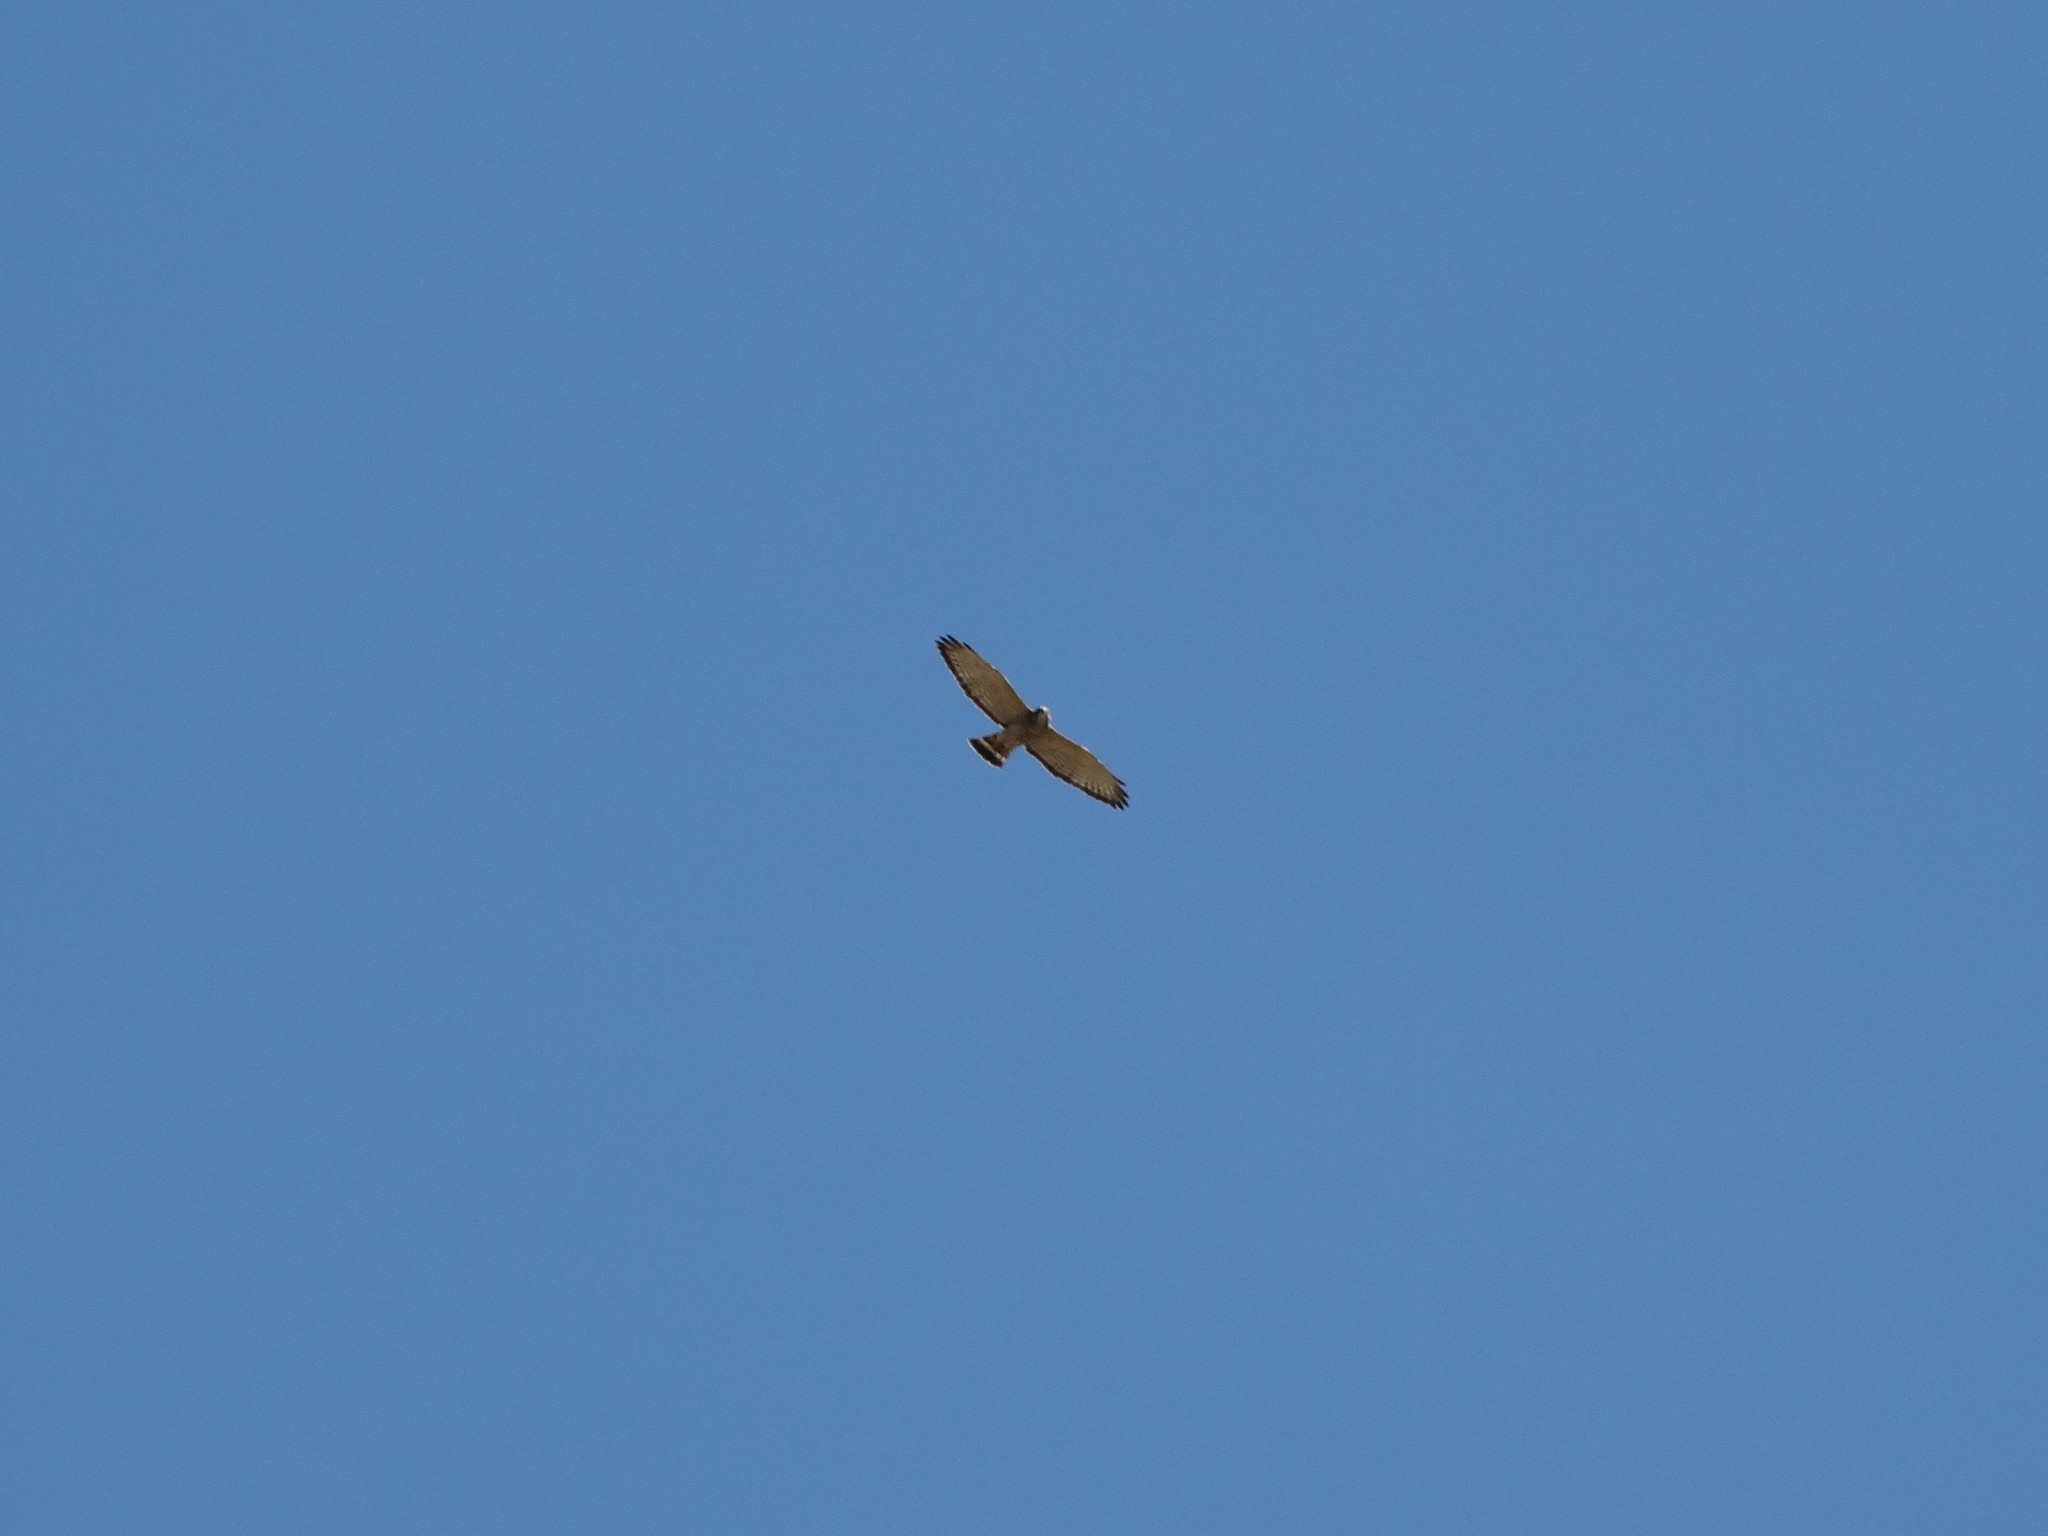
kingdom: Animalia
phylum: Chordata
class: Aves
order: Accipitriformes
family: Accipitridae
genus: Buteo
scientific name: Buteo platypterus
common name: Broad-winged hawk
